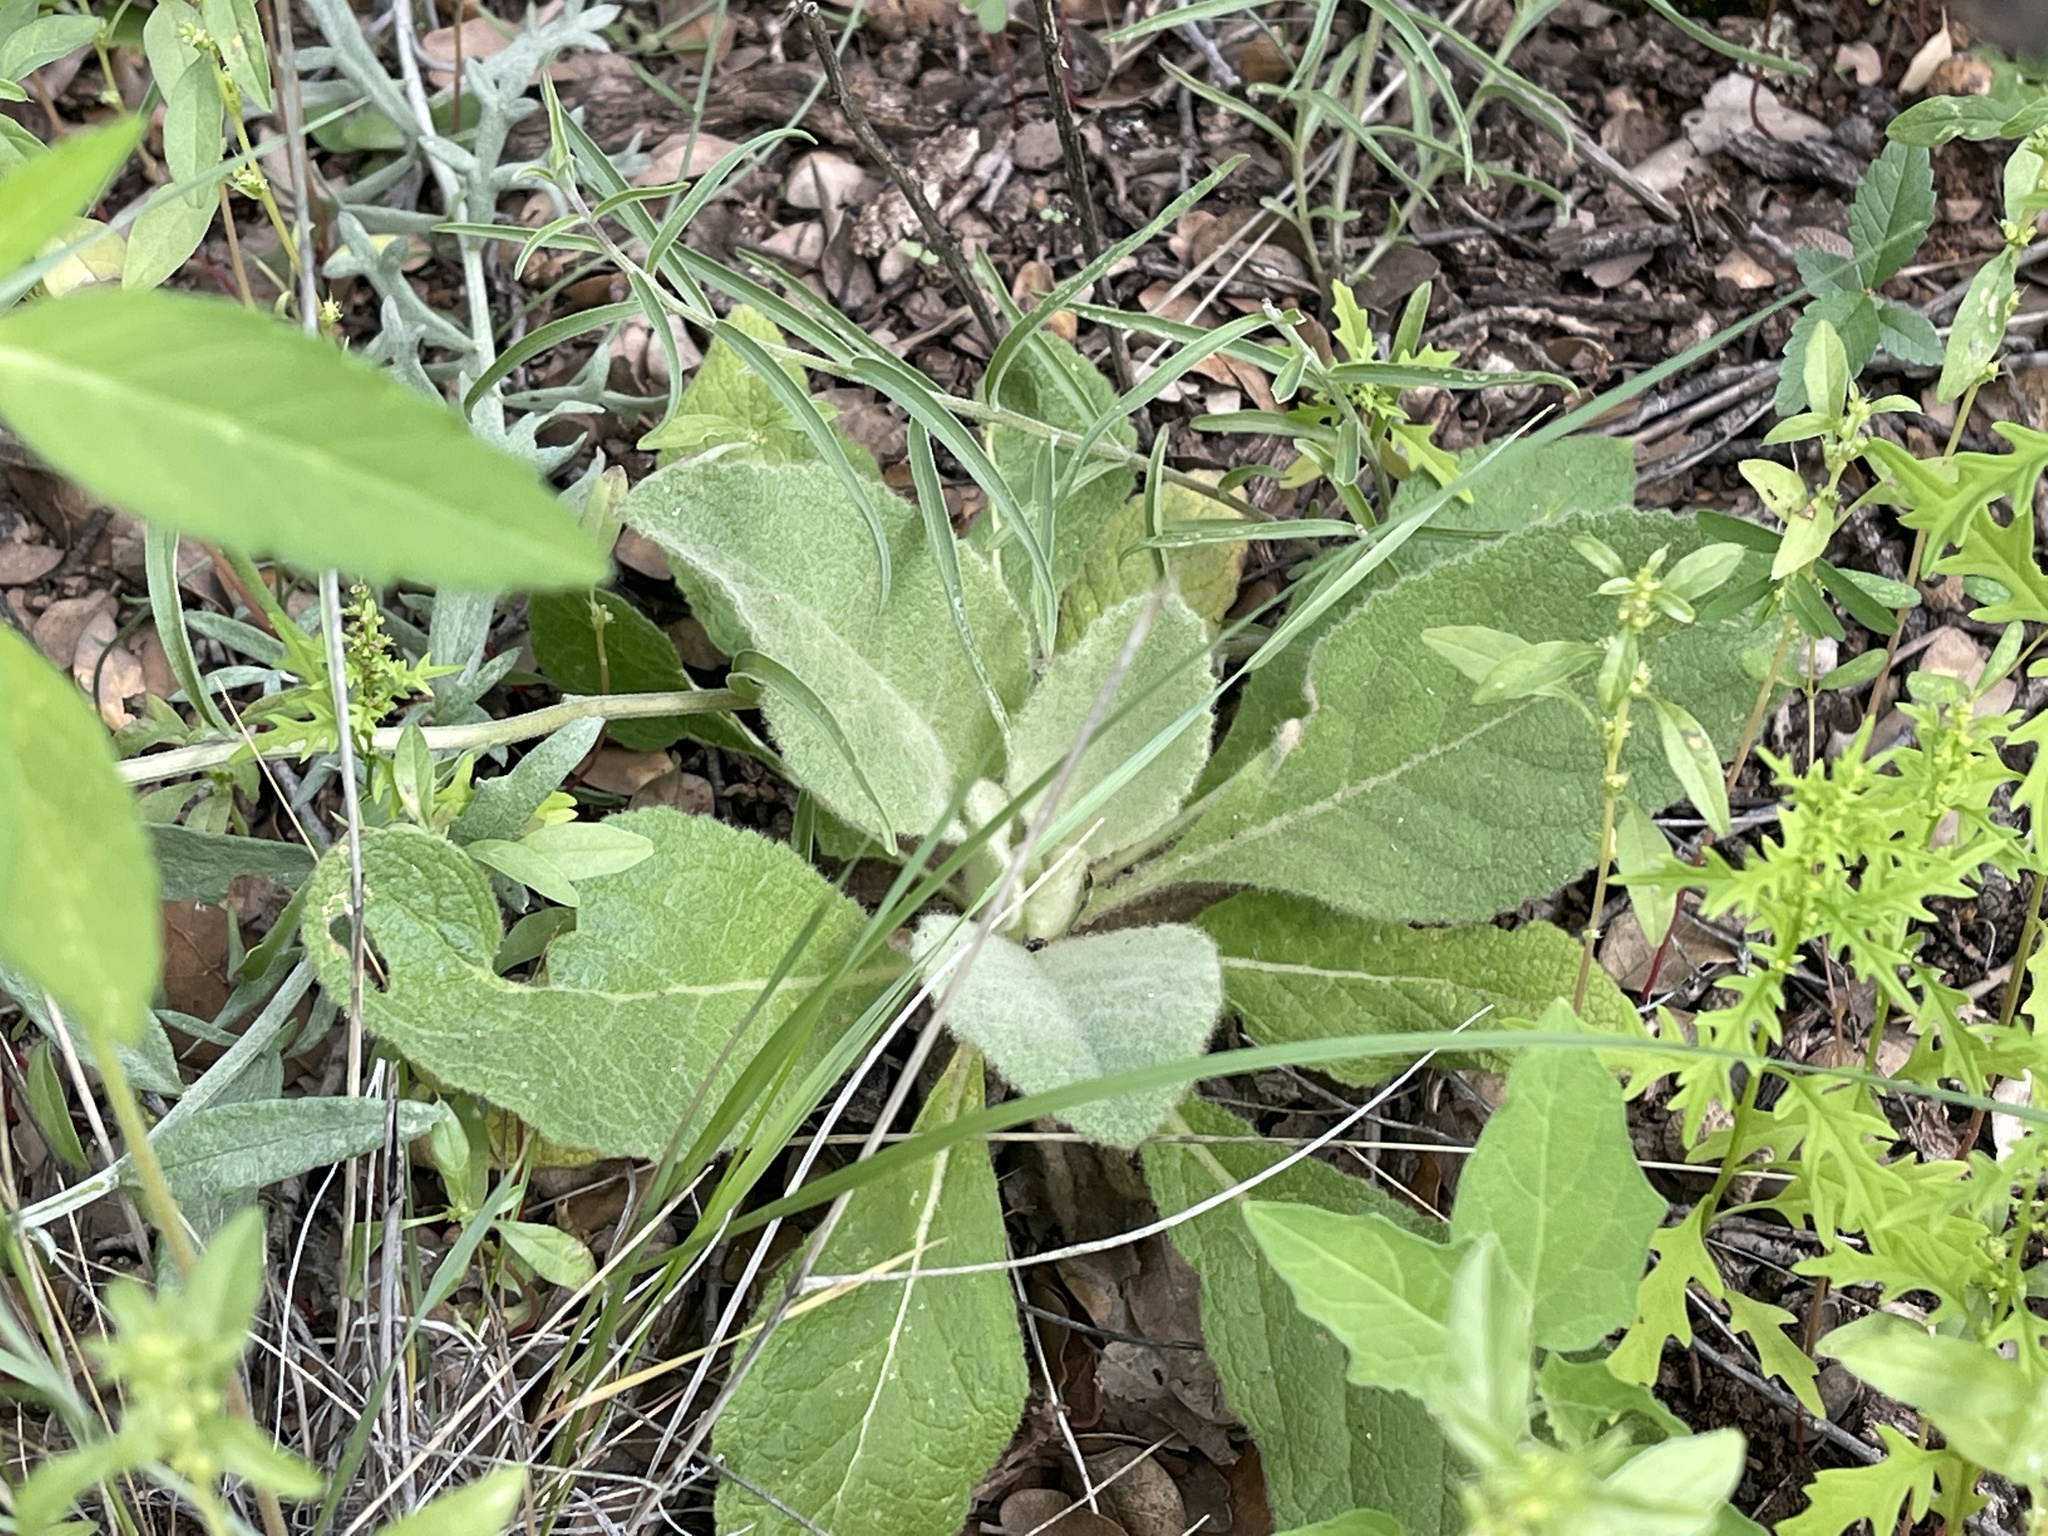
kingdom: Plantae
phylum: Tracheophyta
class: Magnoliopsida
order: Lamiales
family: Scrophulariaceae
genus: Verbascum
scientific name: Verbascum thapsus
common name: Common mullein
